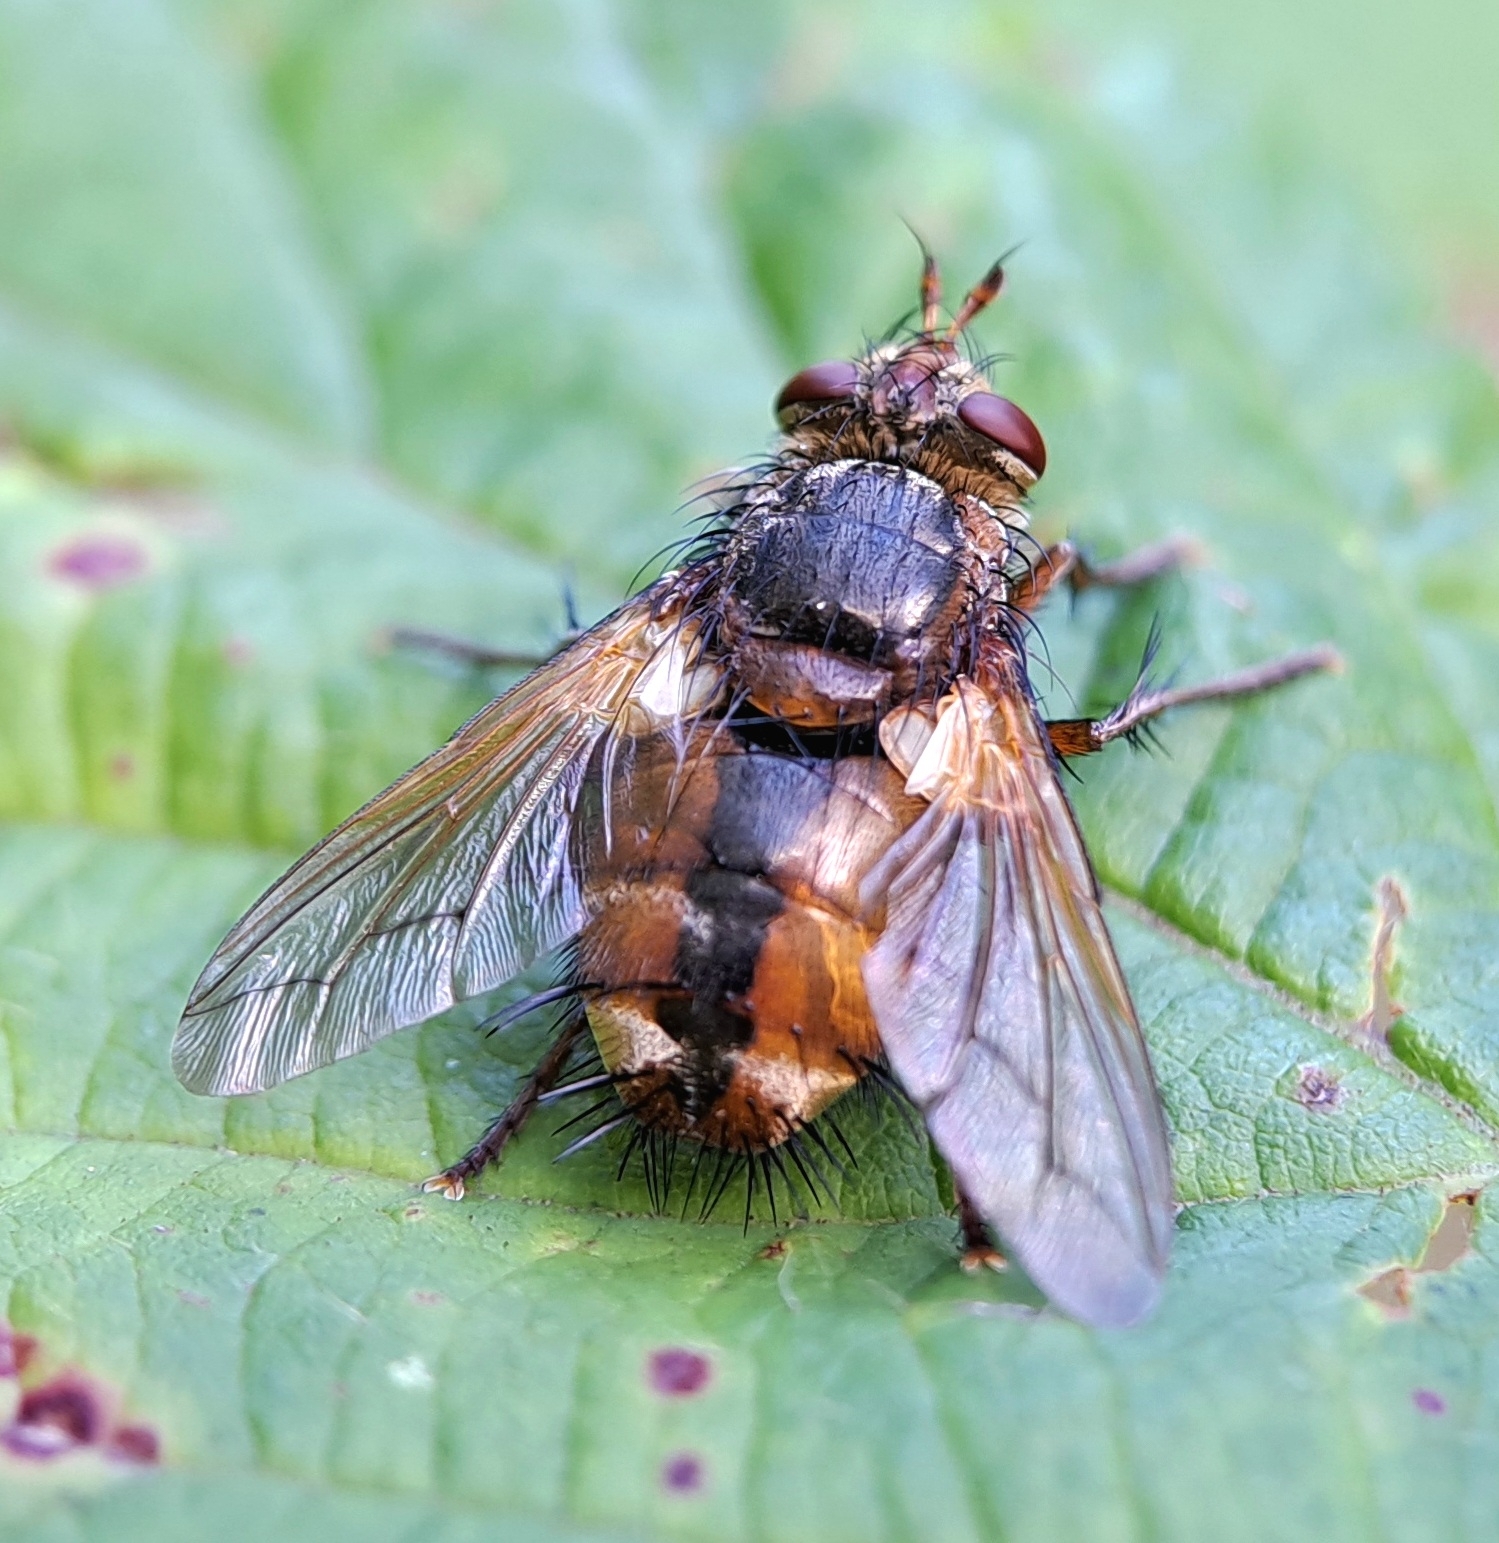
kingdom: Animalia
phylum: Arthropoda
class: Insecta
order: Diptera
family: Tachinidae
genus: Tachina
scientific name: Tachina fera
